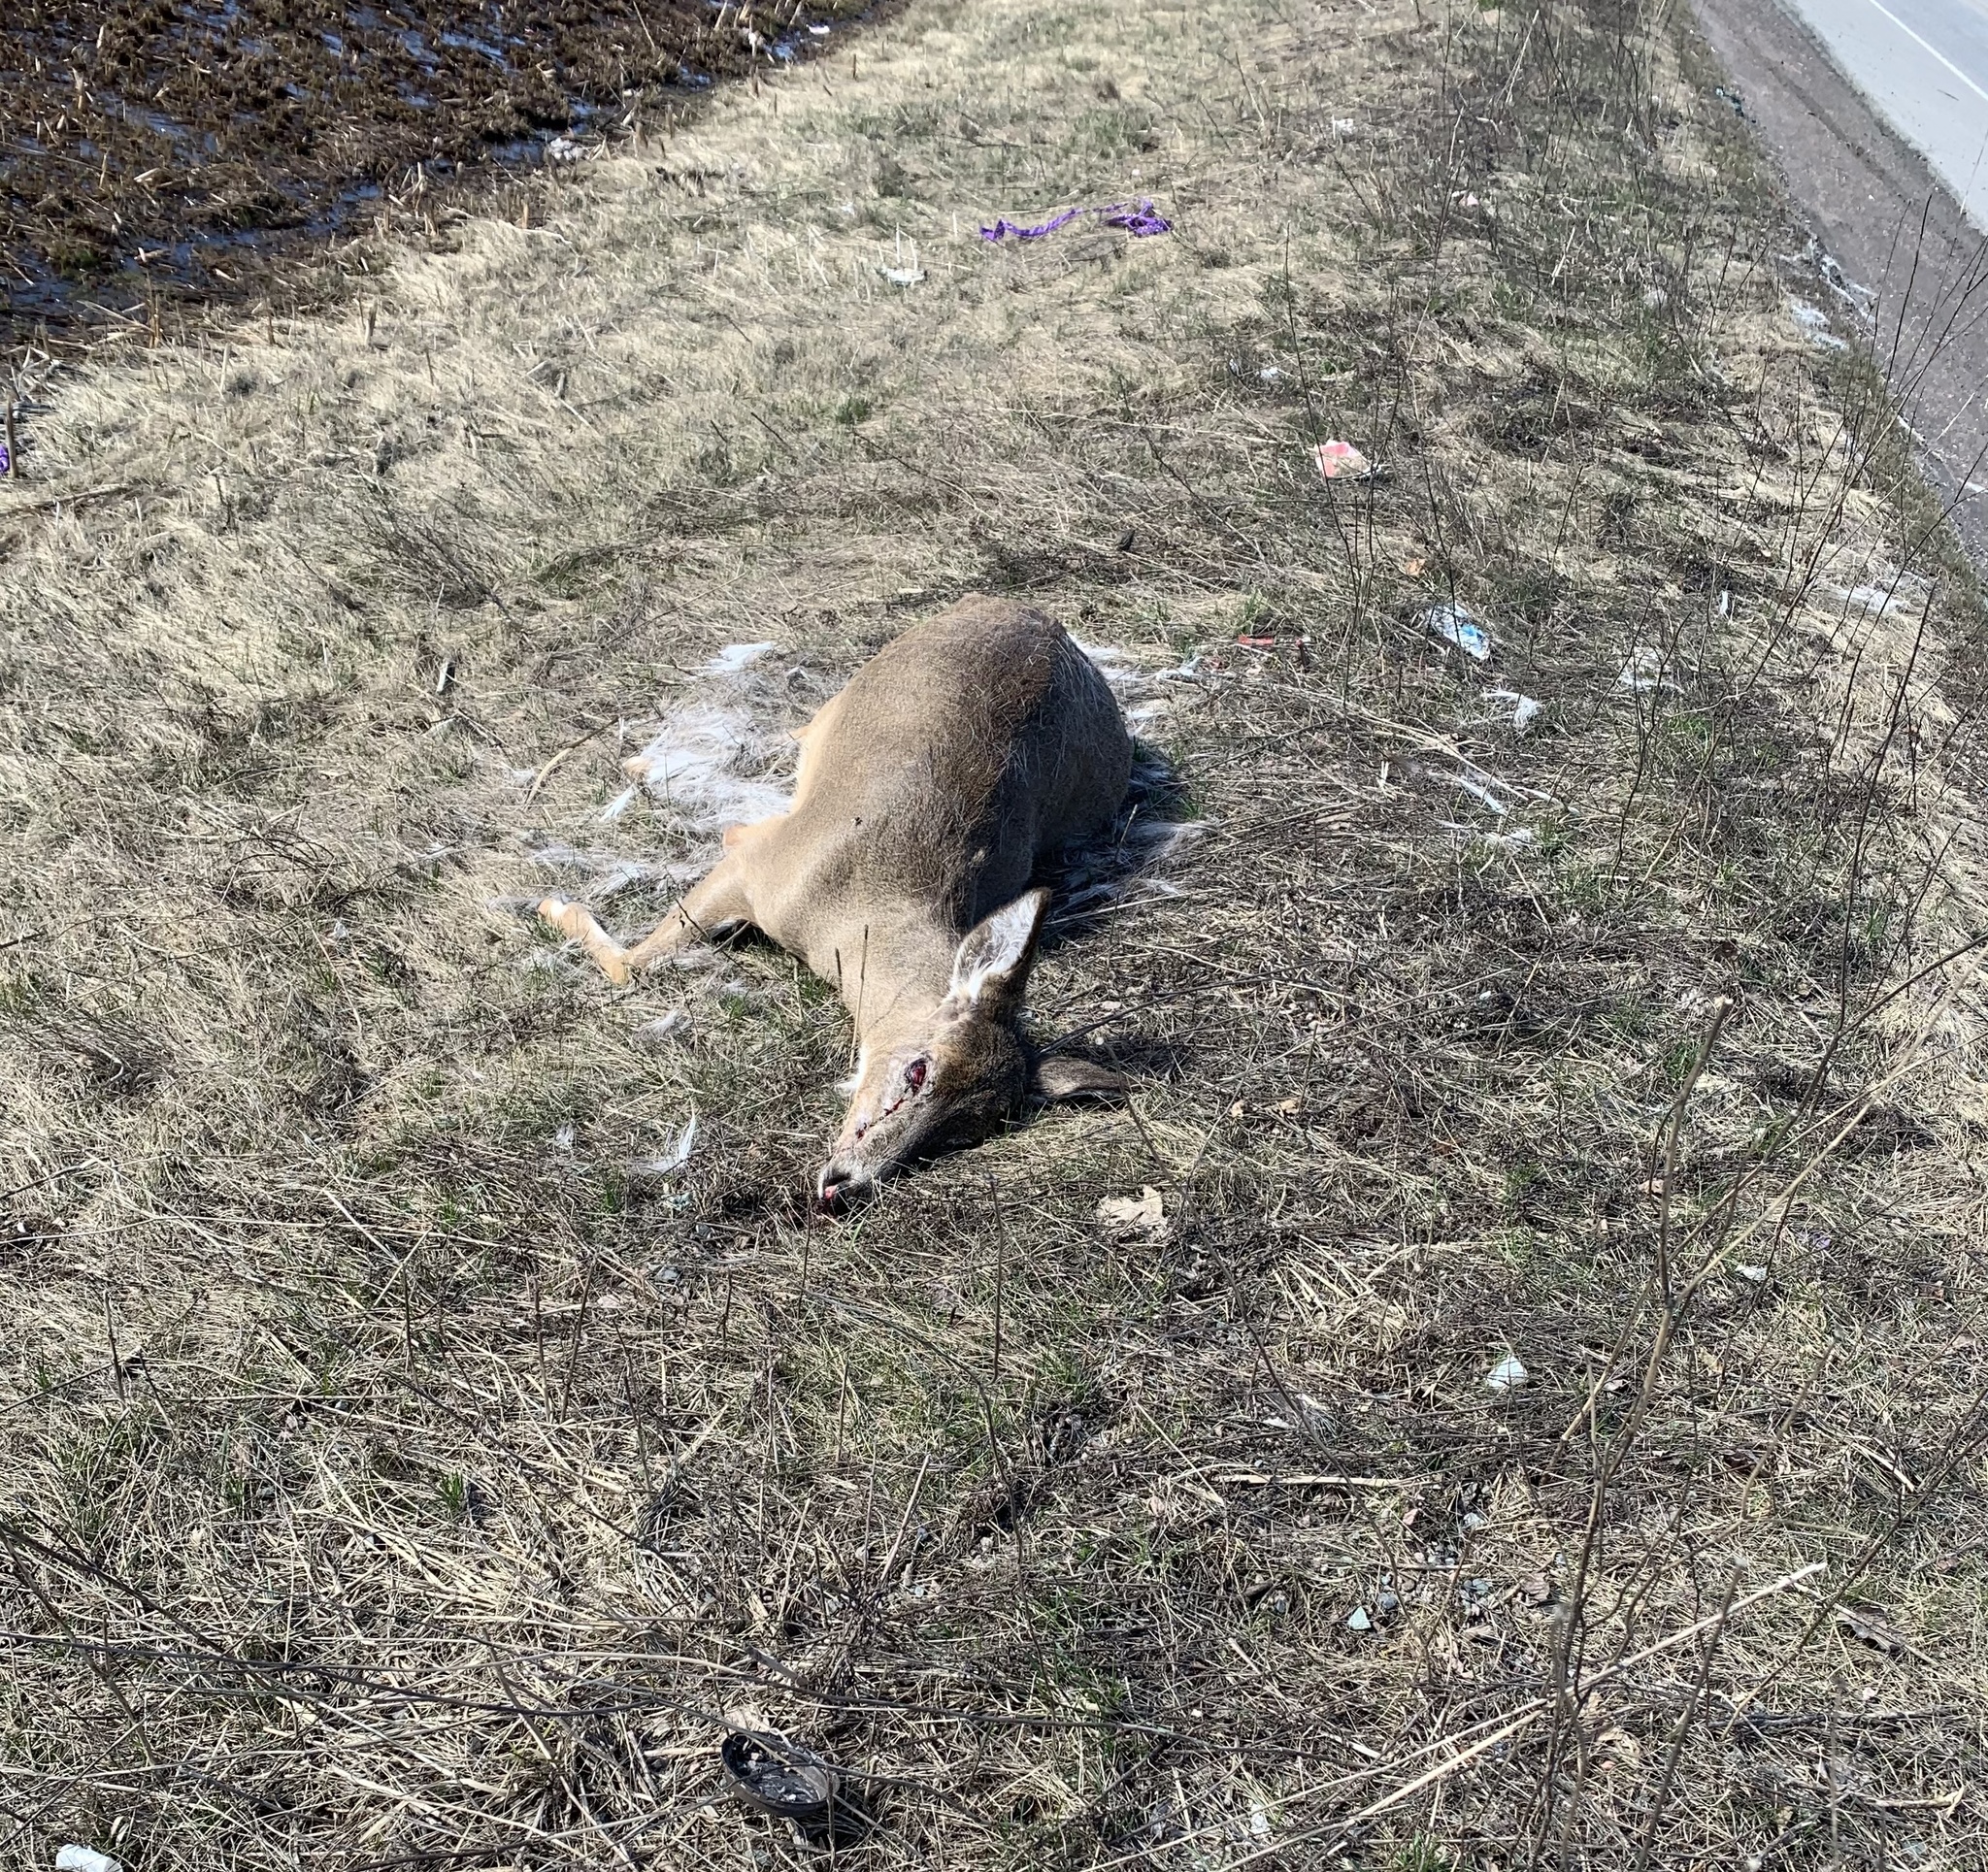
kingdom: Animalia
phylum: Chordata
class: Mammalia
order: Artiodactyla
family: Cervidae
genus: Odocoileus
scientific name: Odocoileus virginianus
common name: White-tailed deer
